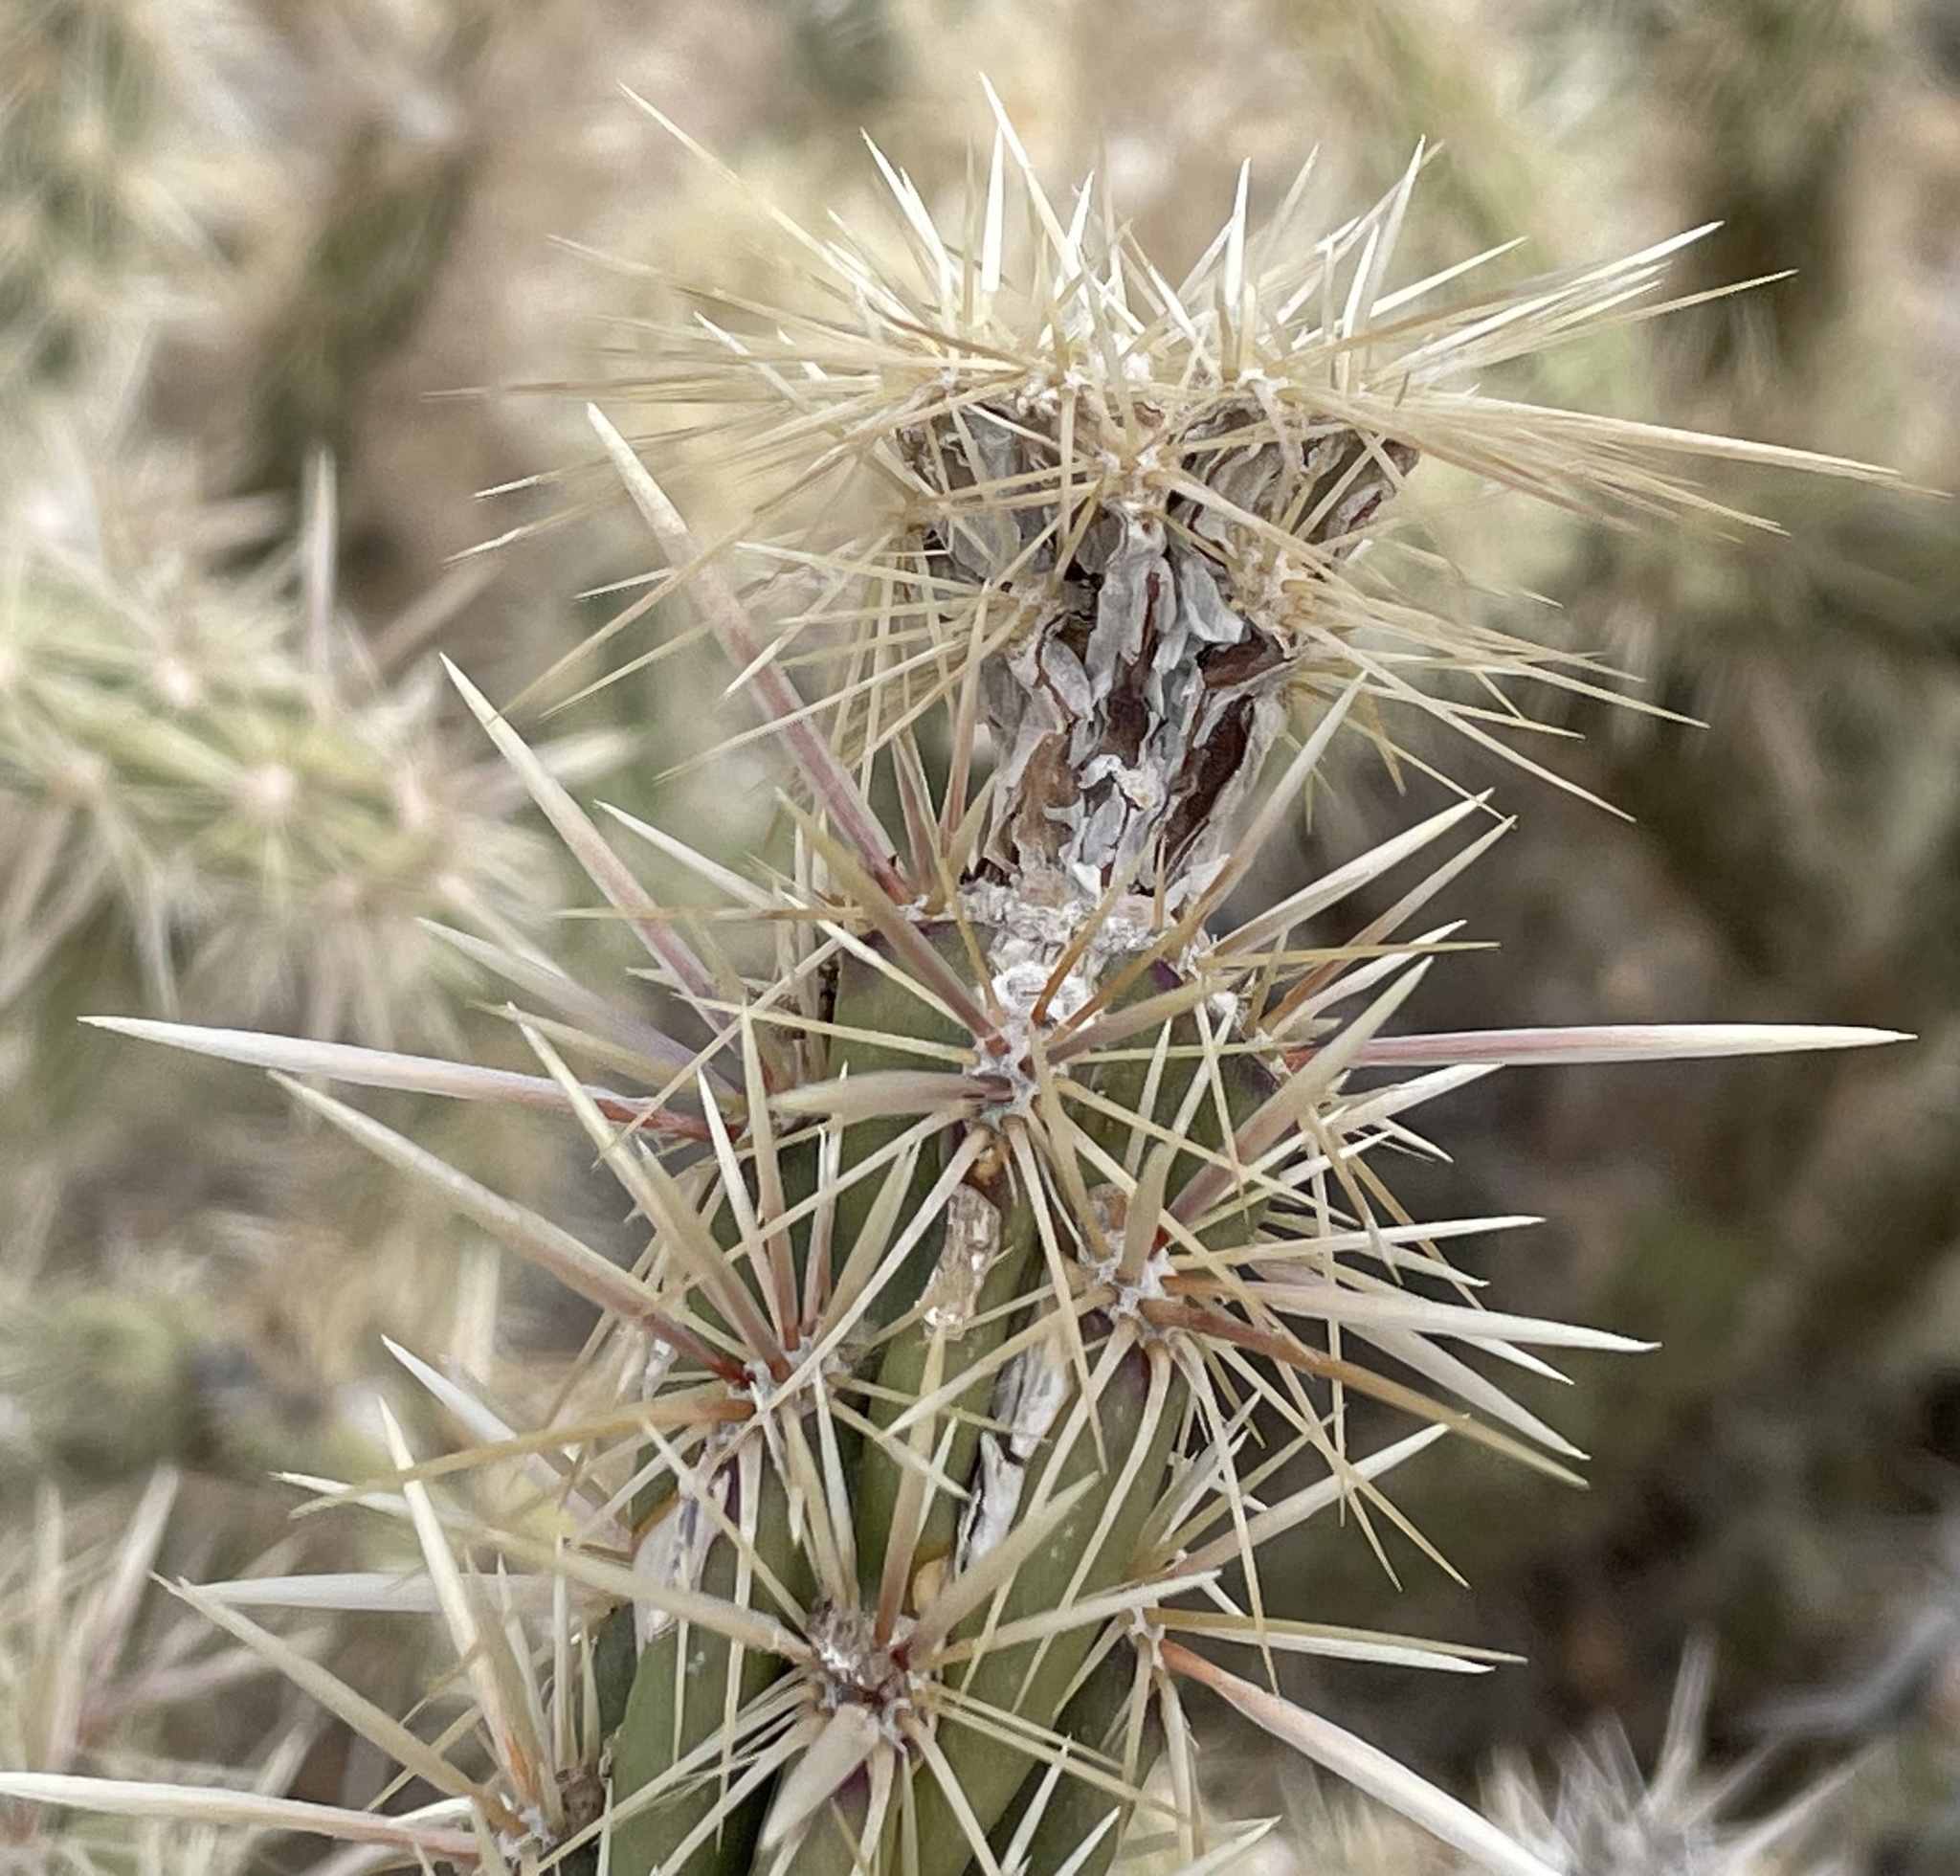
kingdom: Plantae
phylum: Tracheophyta
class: Magnoliopsida
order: Caryophyllales
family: Cactaceae
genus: Cylindropuntia
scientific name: Cylindropuntia acanthocarpa
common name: Buckhorn cholla
